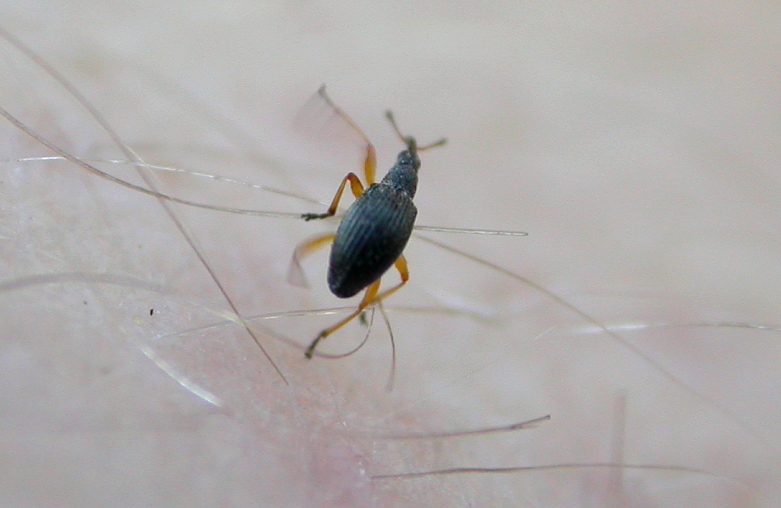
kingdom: Animalia
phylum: Arthropoda
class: Insecta
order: Coleoptera
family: Apionidae
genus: Protapion
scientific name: Protapion fulvipes
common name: White clover seed weevil
